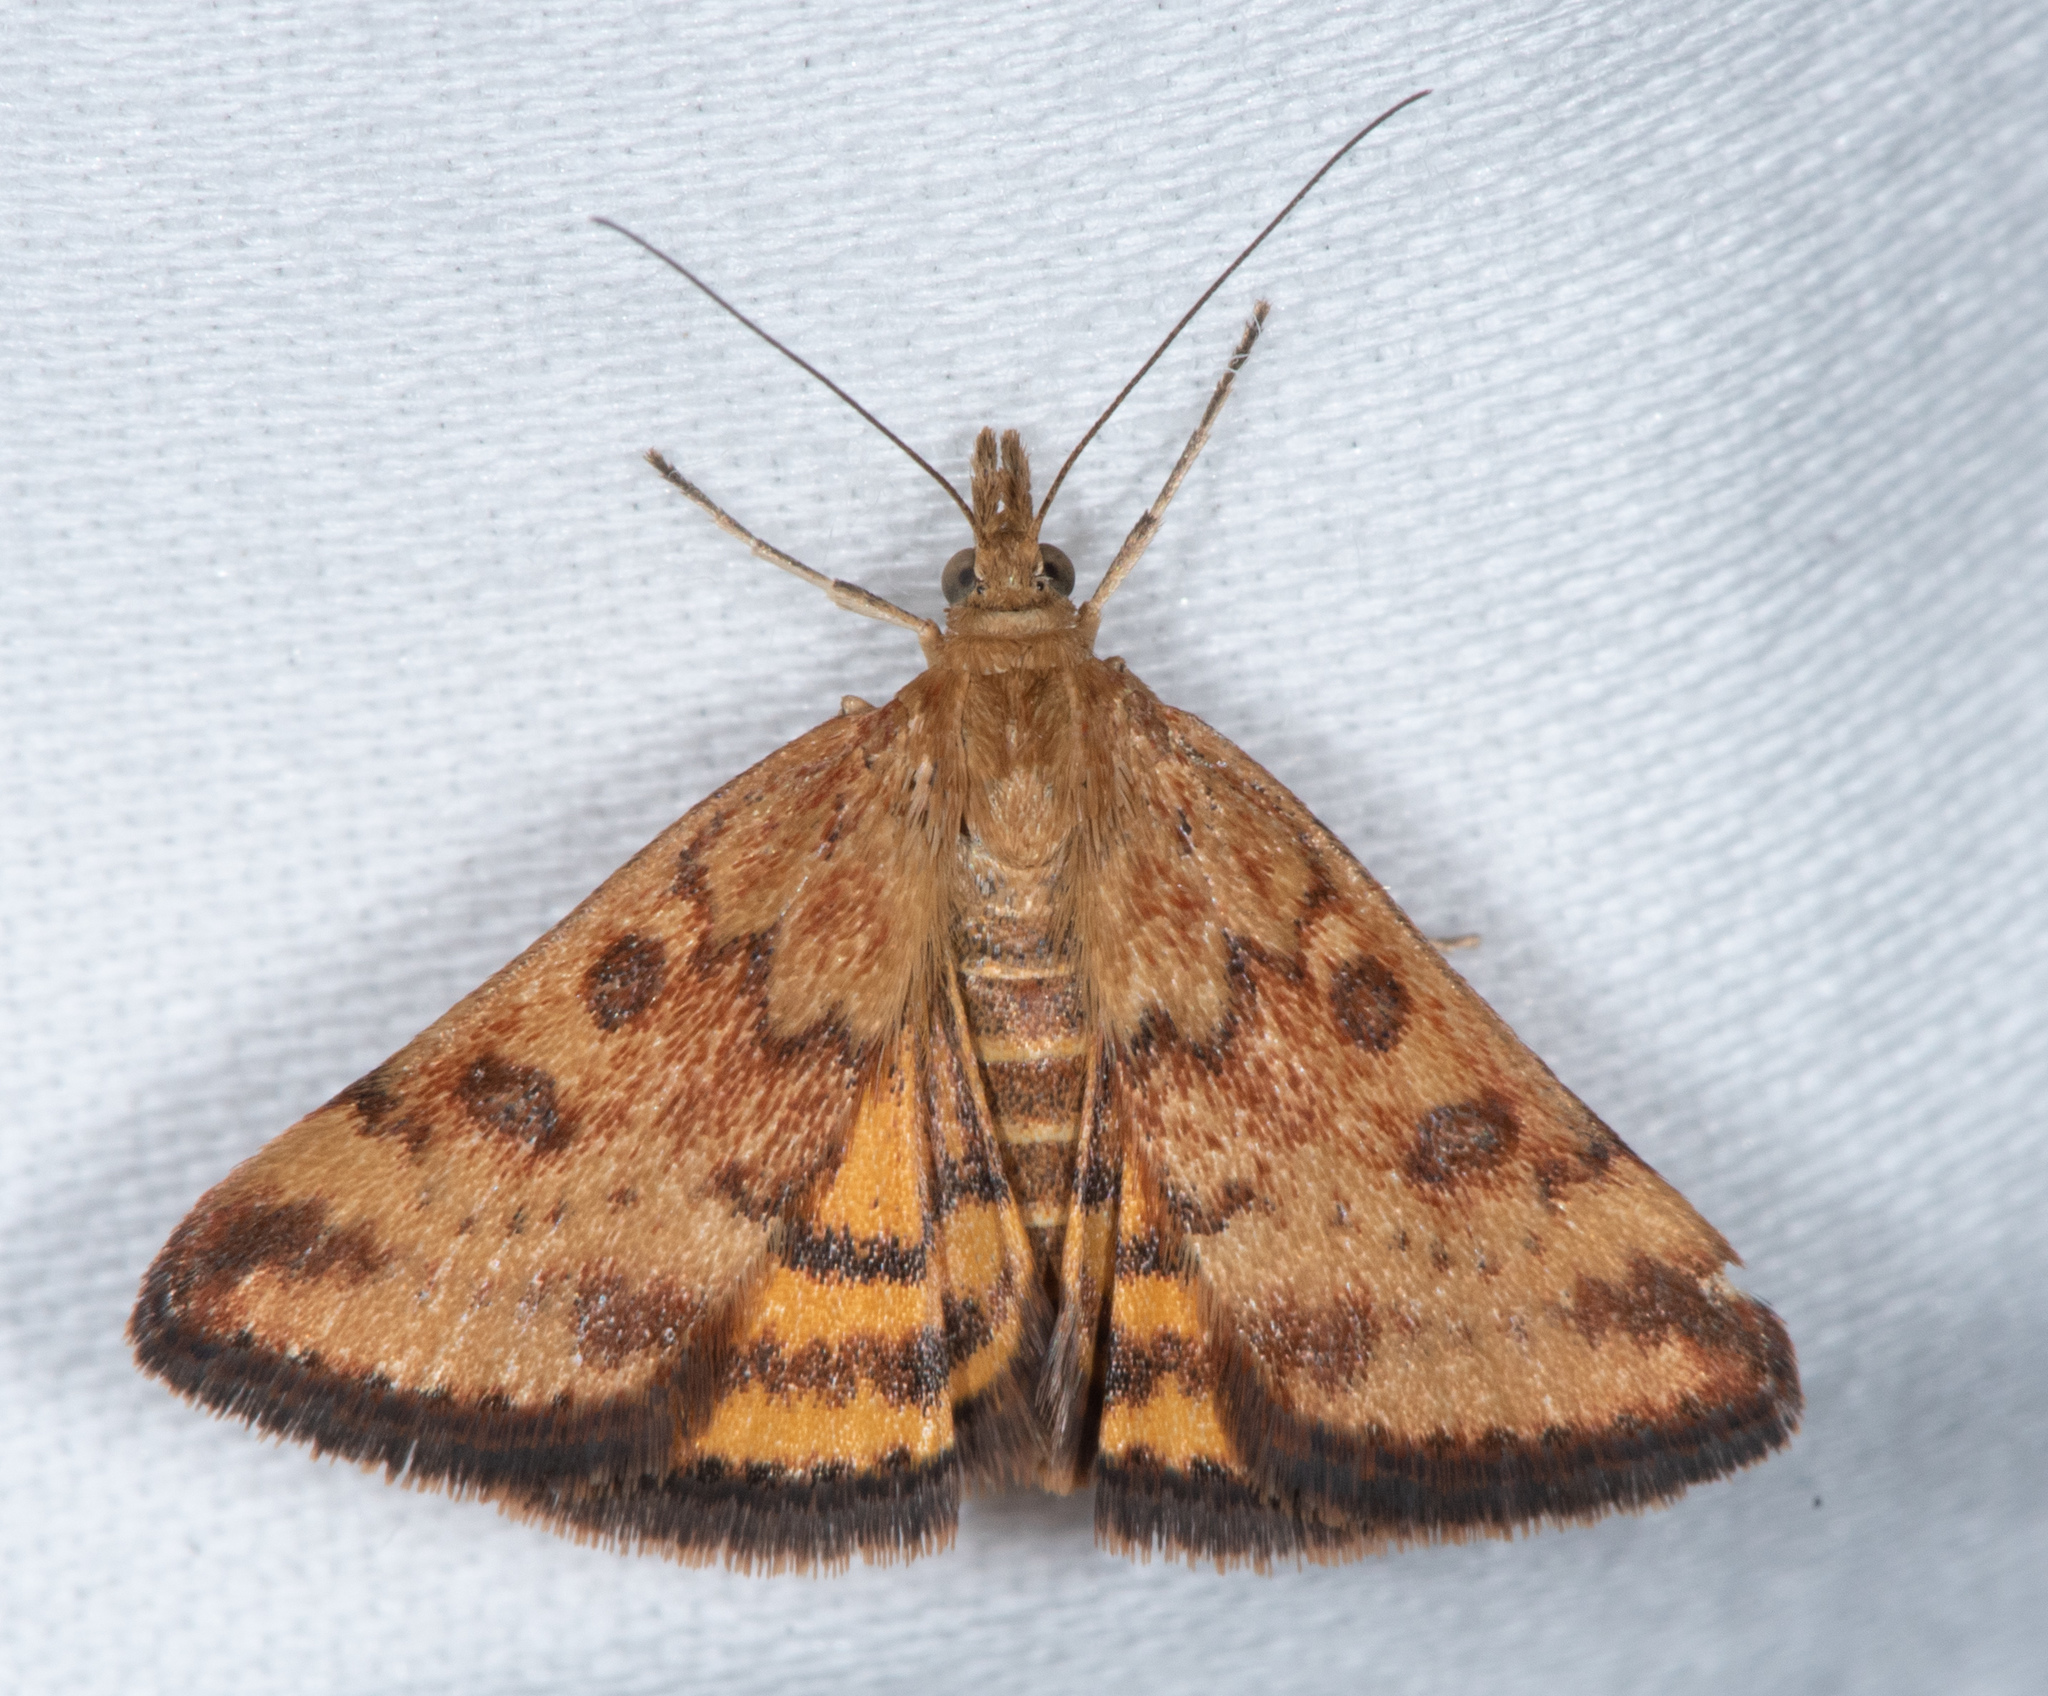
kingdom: Animalia
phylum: Arthropoda
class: Insecta
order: Lepidoptera
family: Crambidae
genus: Pyrausta
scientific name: Pyrausta subsequalis
